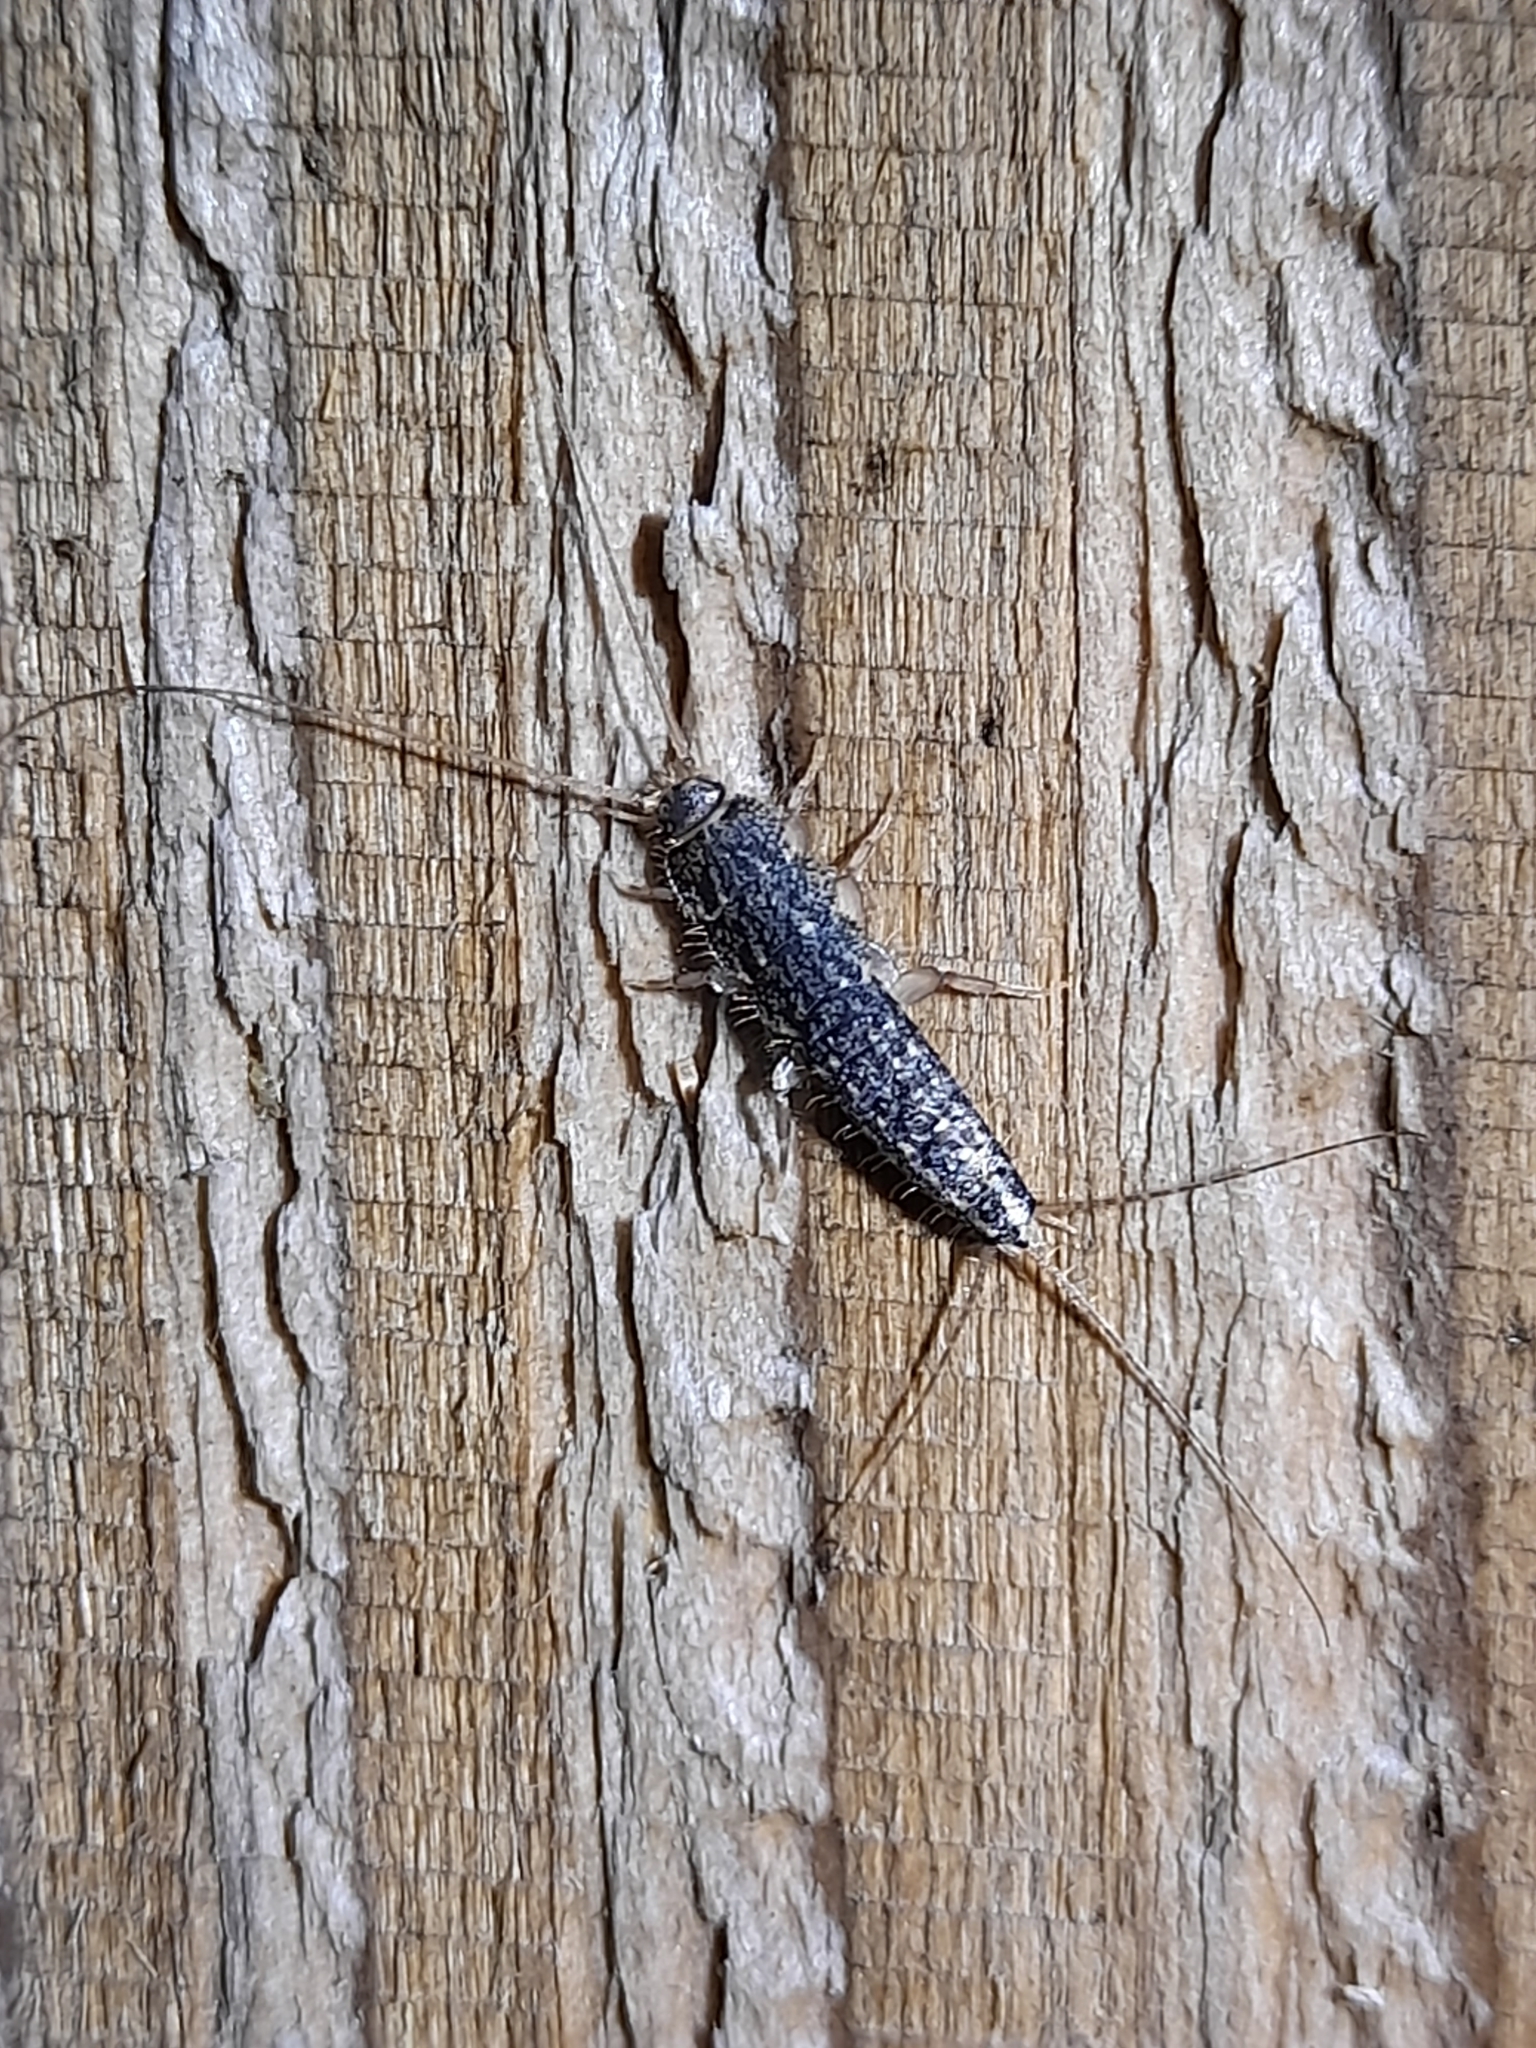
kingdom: Animalia
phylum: Arthropoda
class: Insecta
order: Zygentoma
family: Lepismatidae
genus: Ctenolepisma
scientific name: Ctenolepisma lineata
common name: Four-lined silverfish
